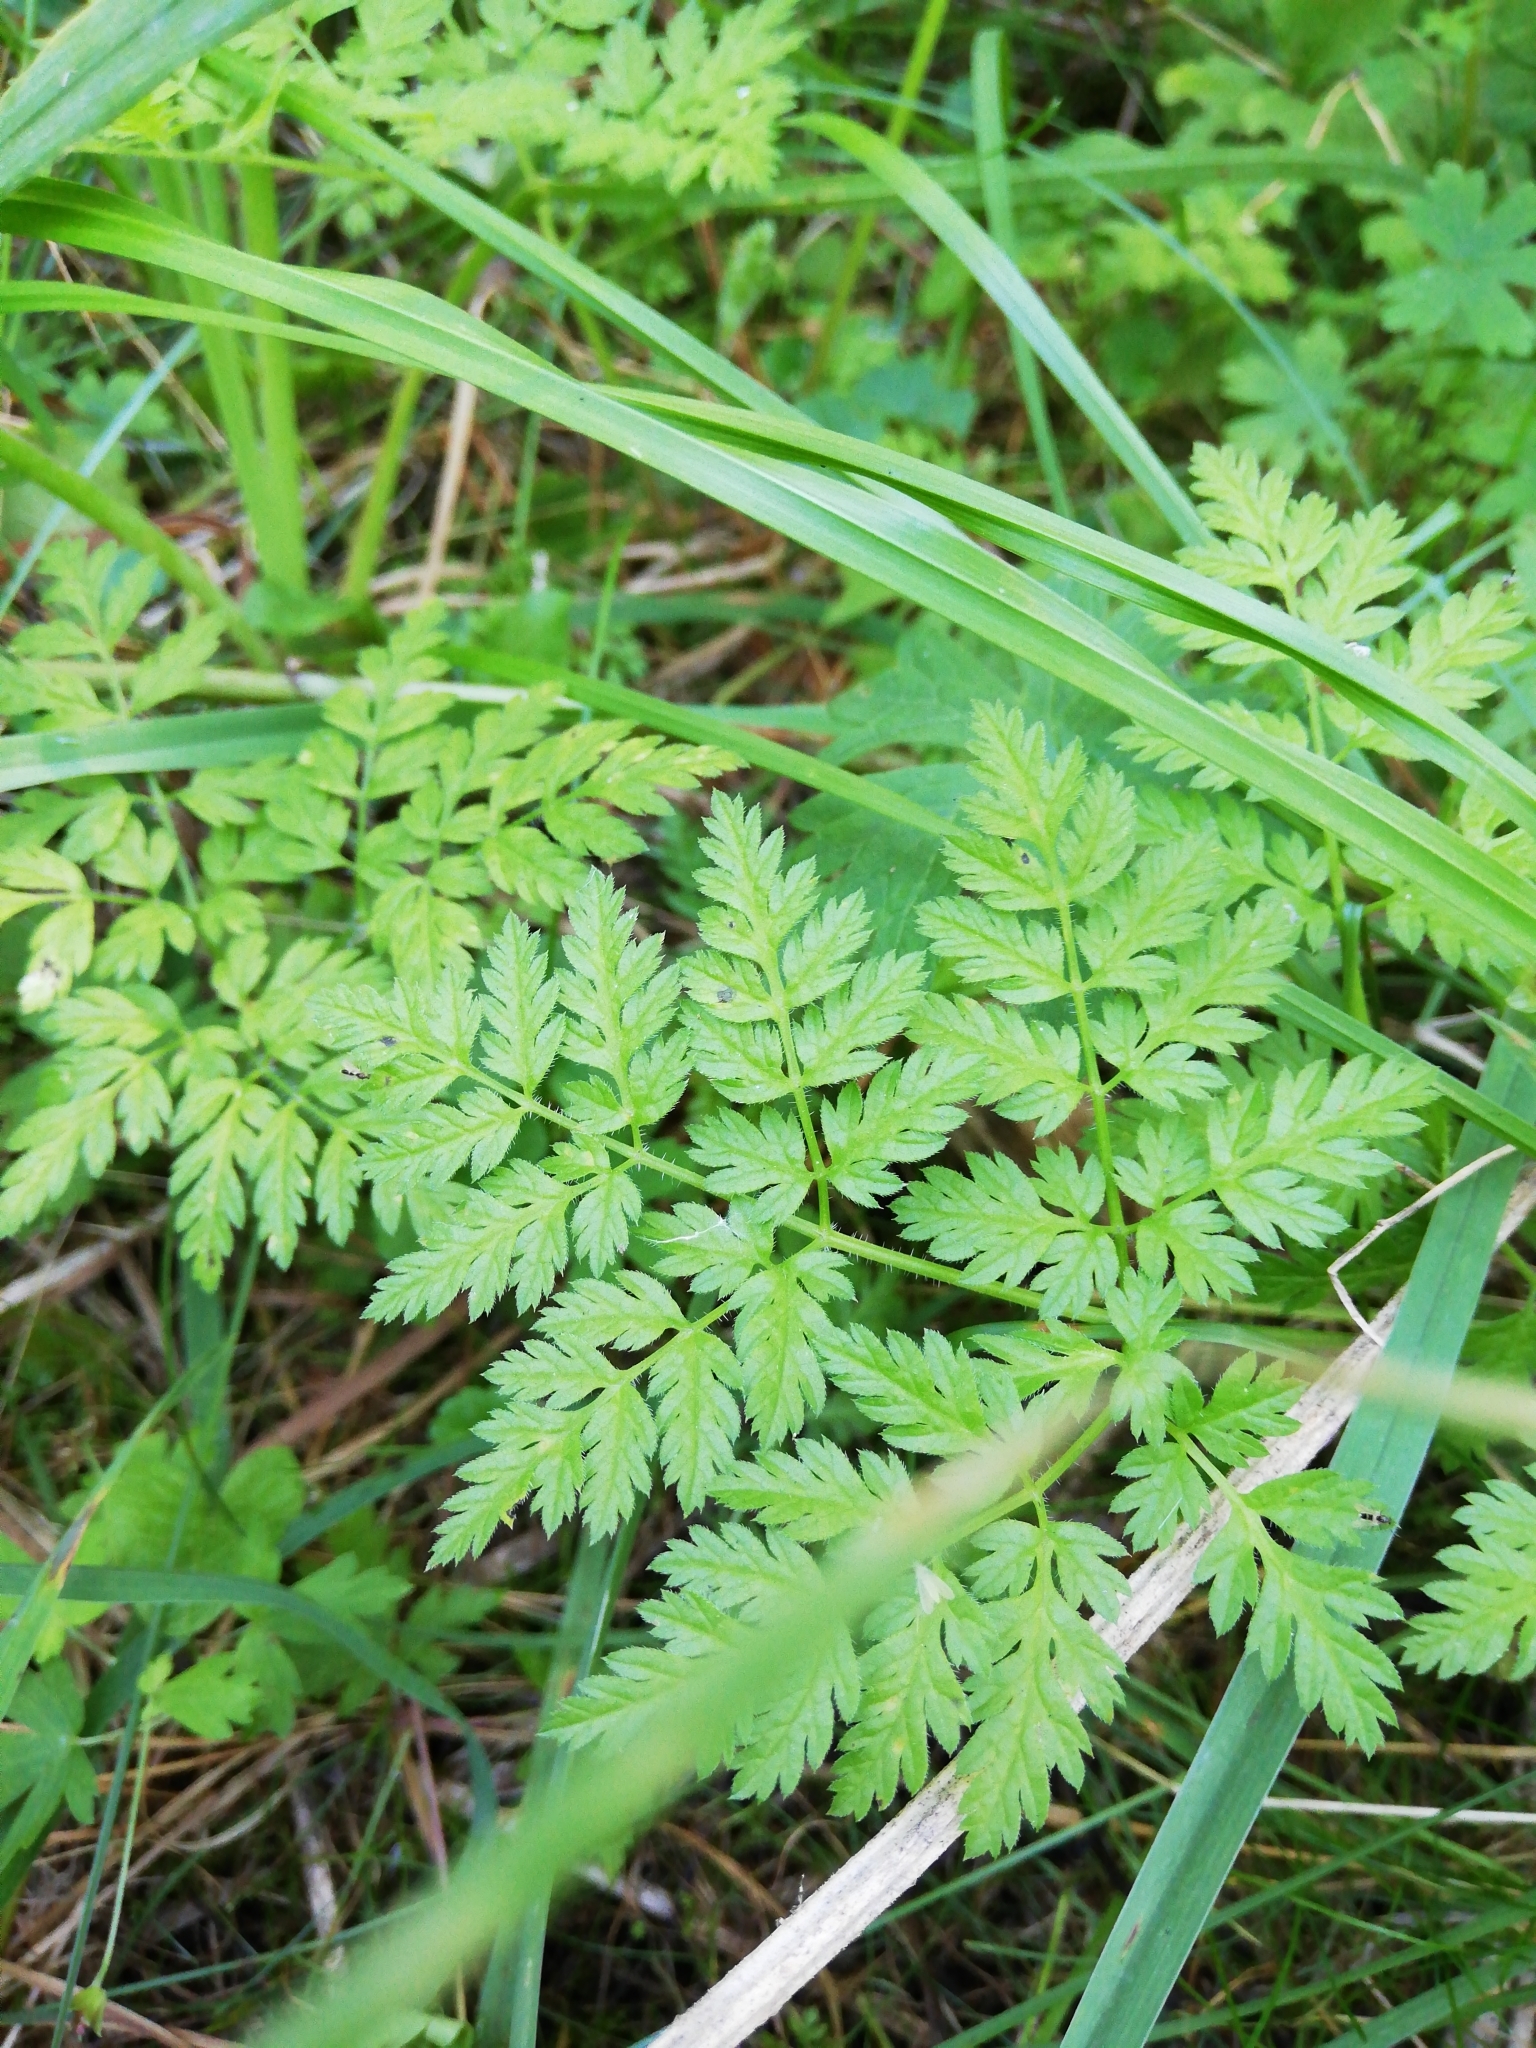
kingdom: Plantae
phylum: Tracheophyta
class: Magnoliopsida
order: Apiales
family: Apiaceae
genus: Anthriscus
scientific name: Anthriscus sylvestris
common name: Cow parsley
